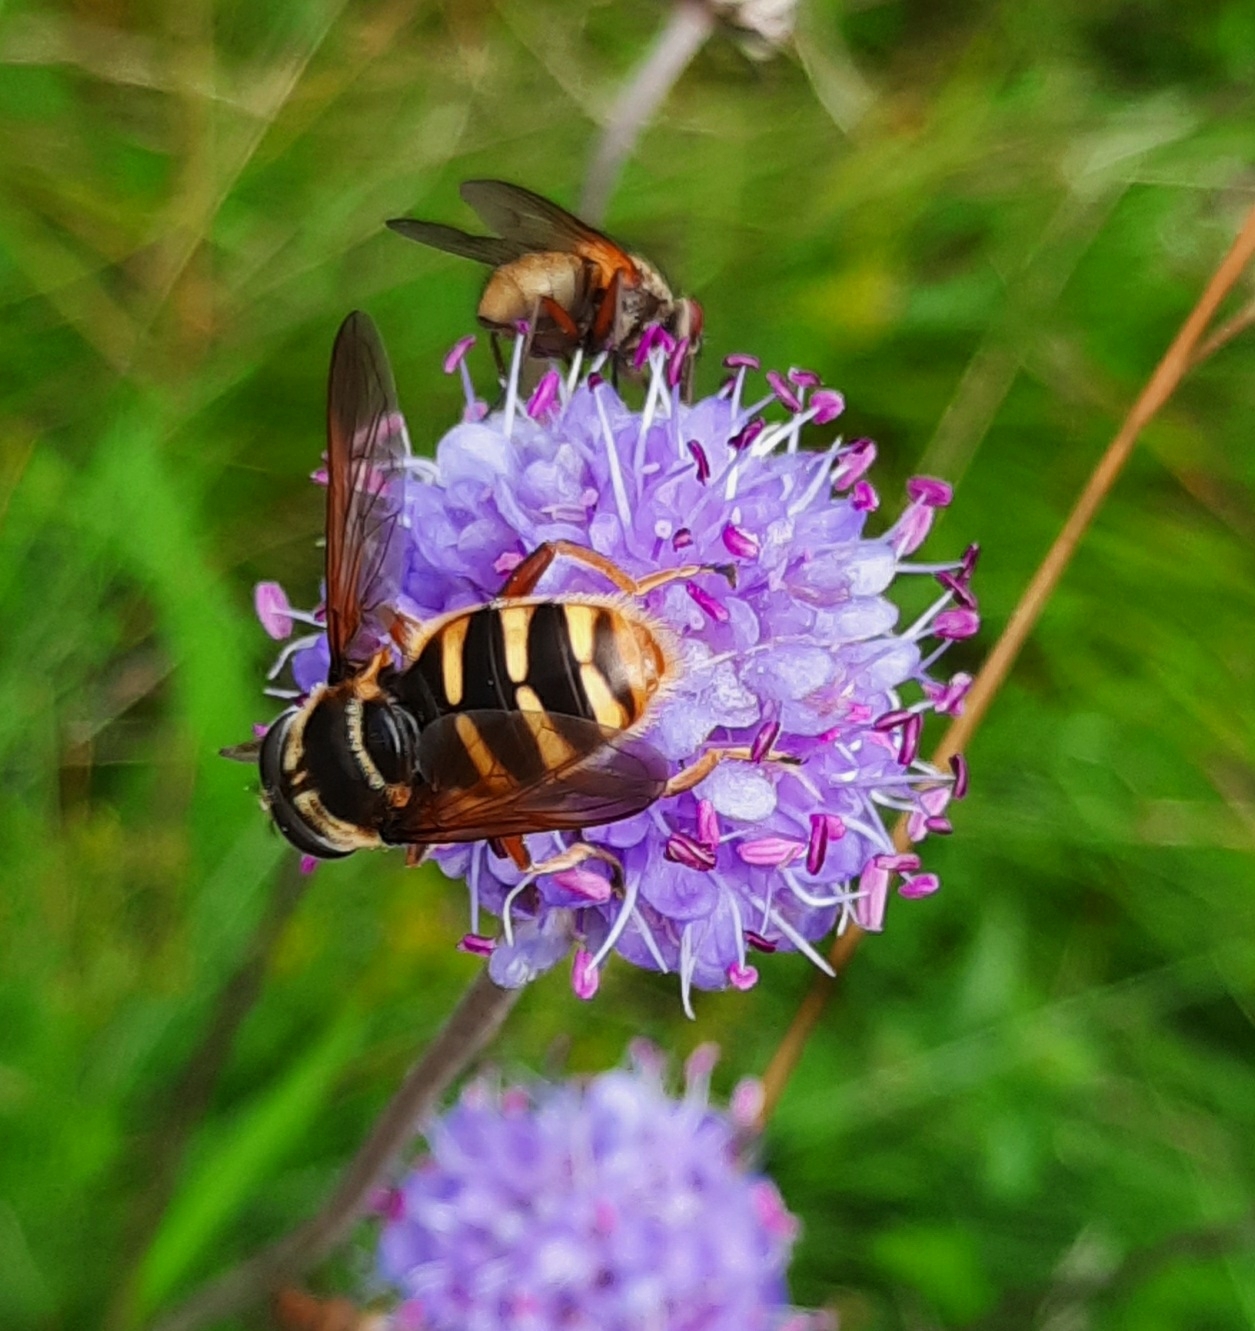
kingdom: Animalia
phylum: Arthropoda
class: Insecta
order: Diptera
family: Syrphidae
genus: Sericomyia
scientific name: Sericomyia silentis
